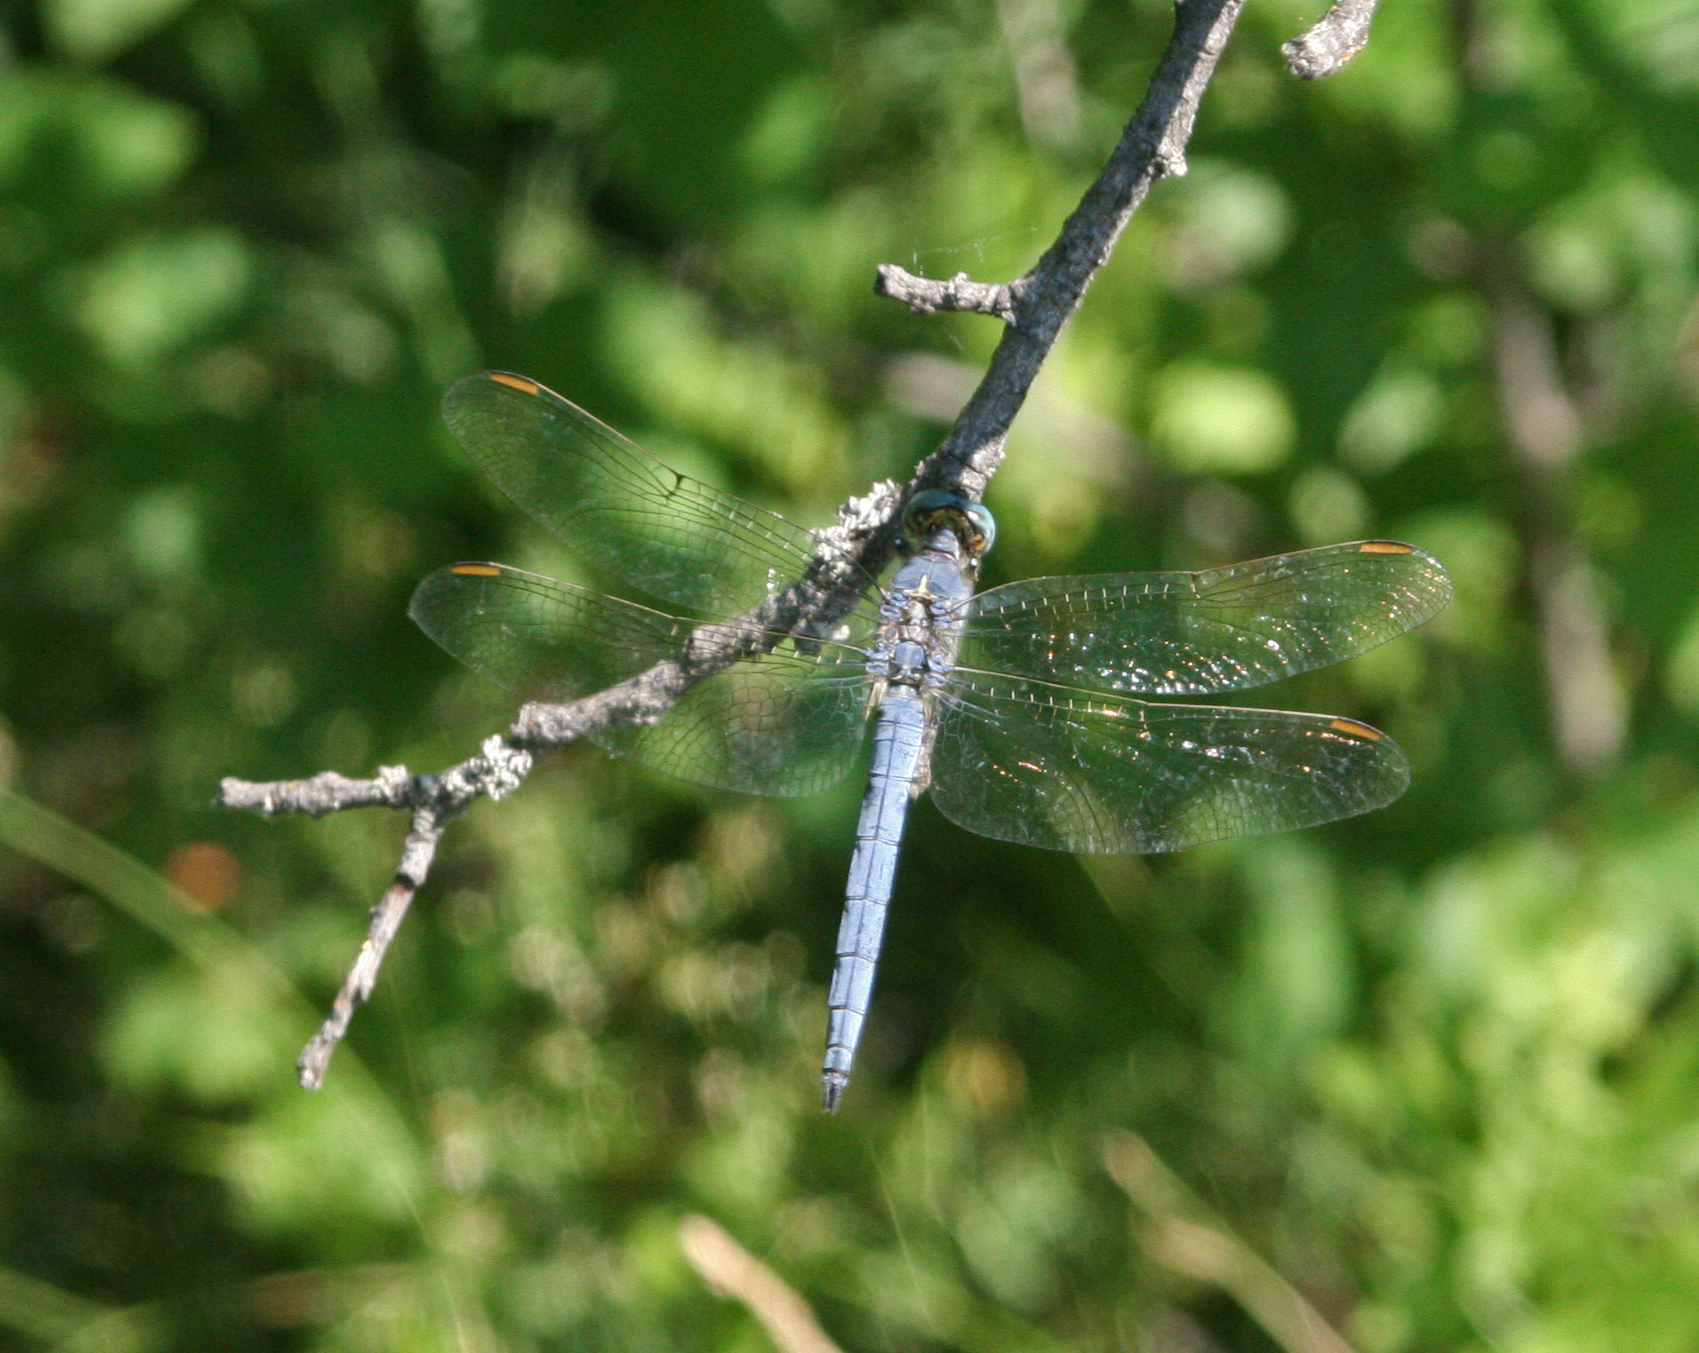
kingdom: Animalia
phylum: Arthropoda
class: Insecta
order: Odonata
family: Libellulidae
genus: Orthetrum
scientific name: Orthetrum coerulescens
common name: Keeled skimmer
